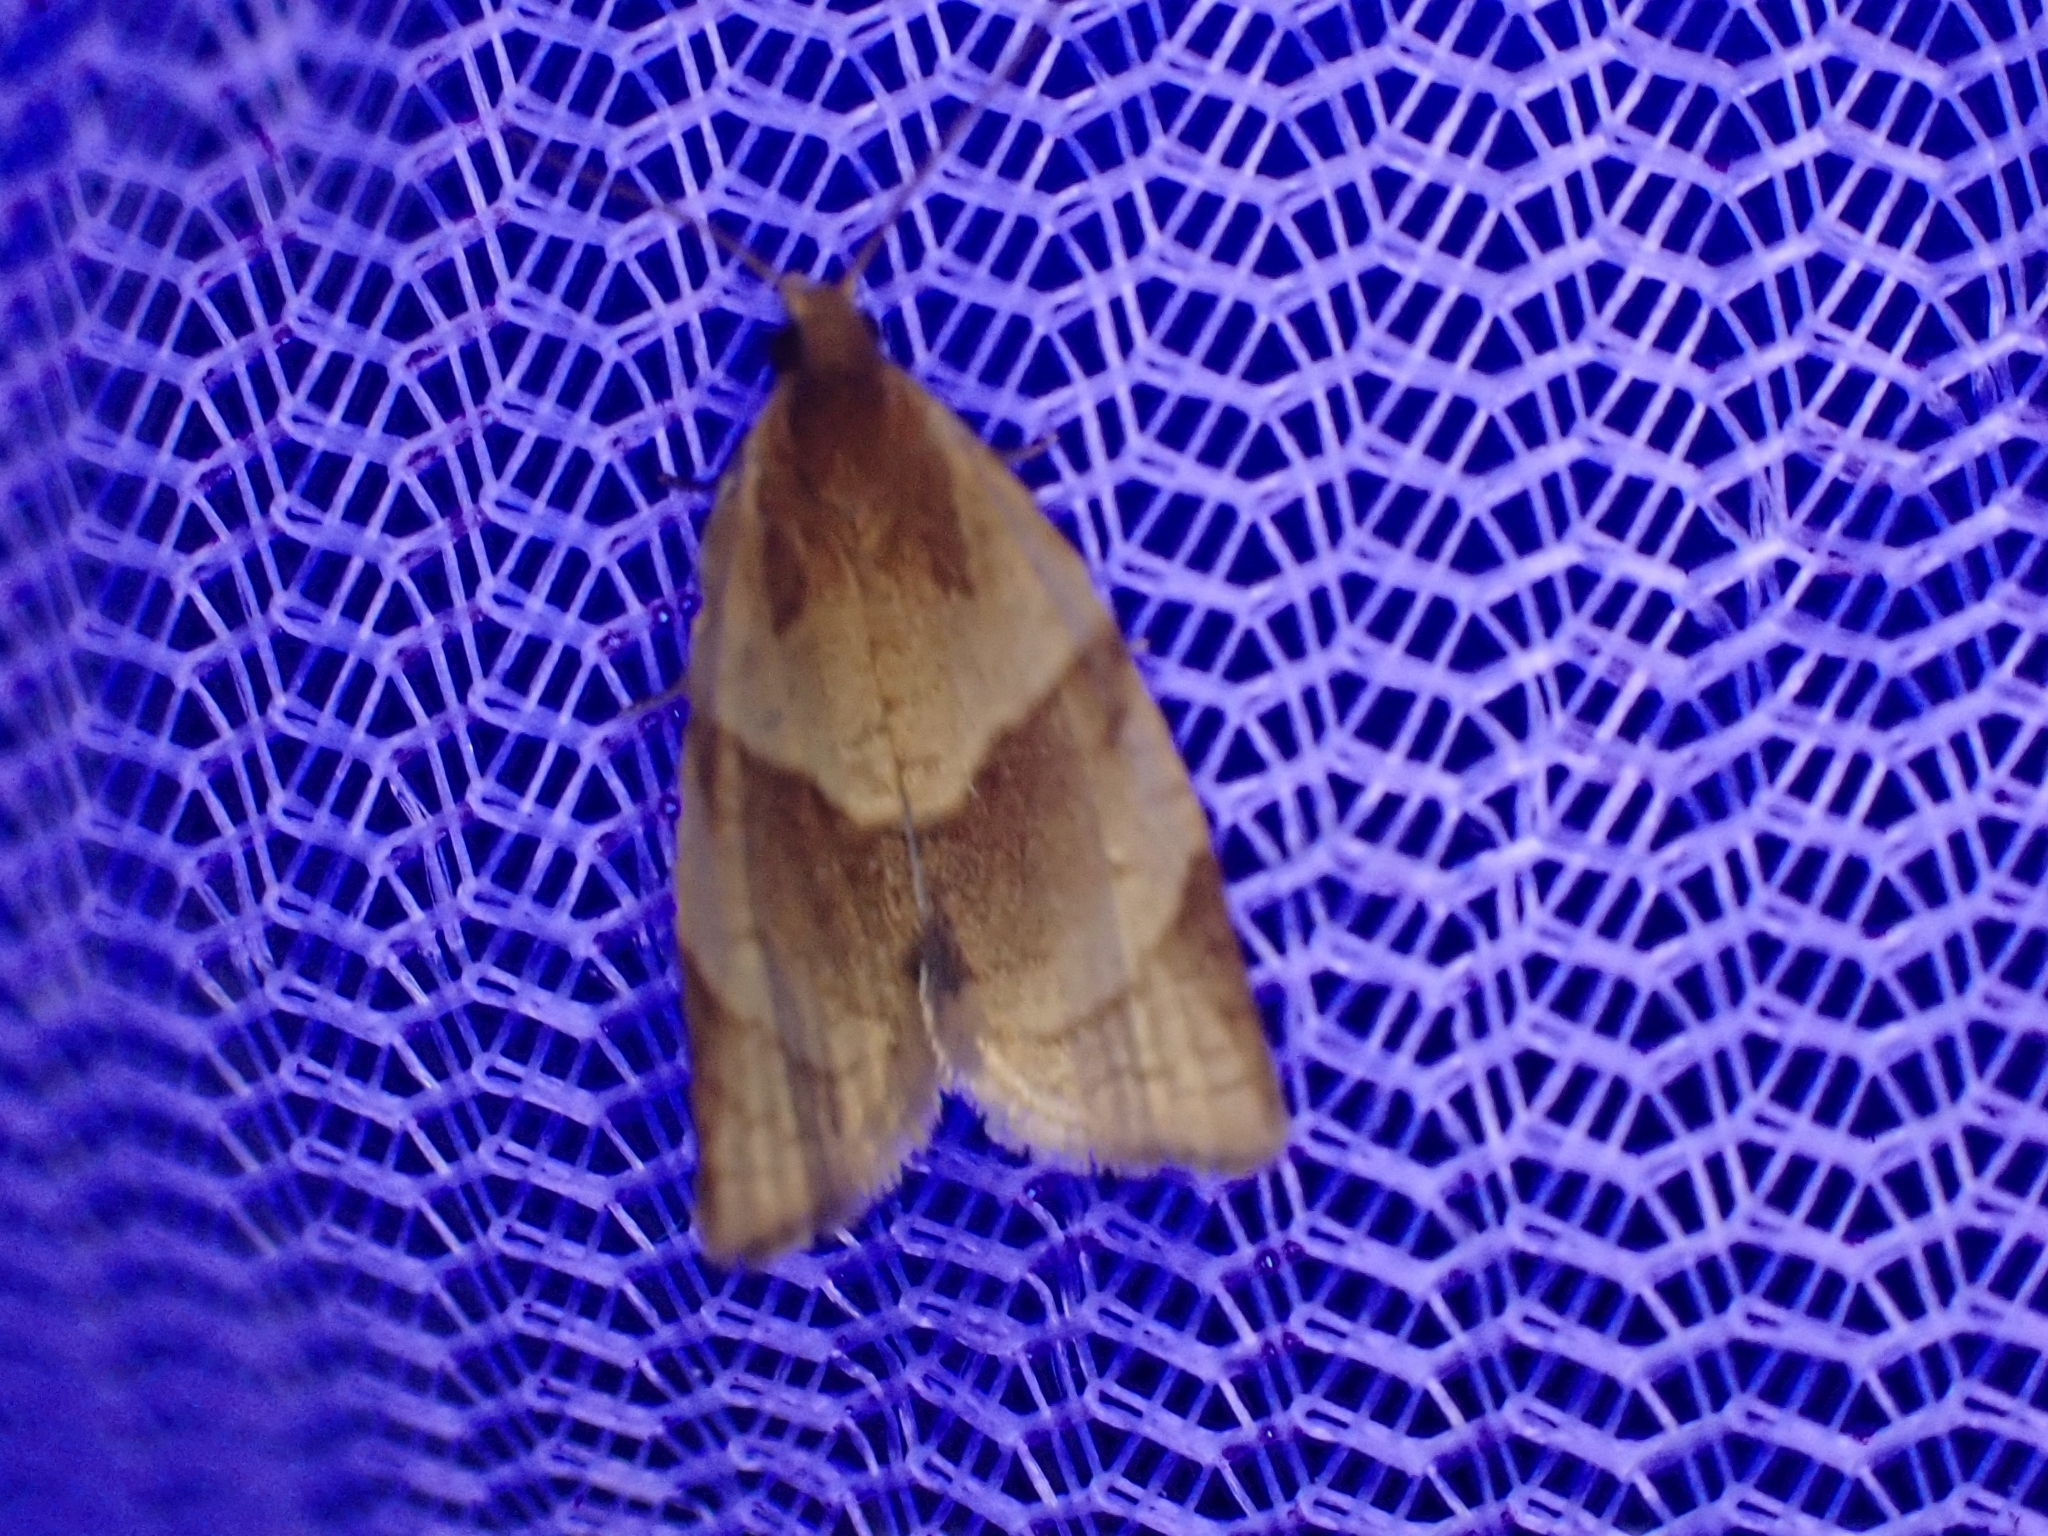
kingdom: Animalia
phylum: Arthropoda
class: Insecta
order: Lepidoptera
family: Tortricidae
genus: Clepsis
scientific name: Clepsis rurinana
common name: Pale twist
